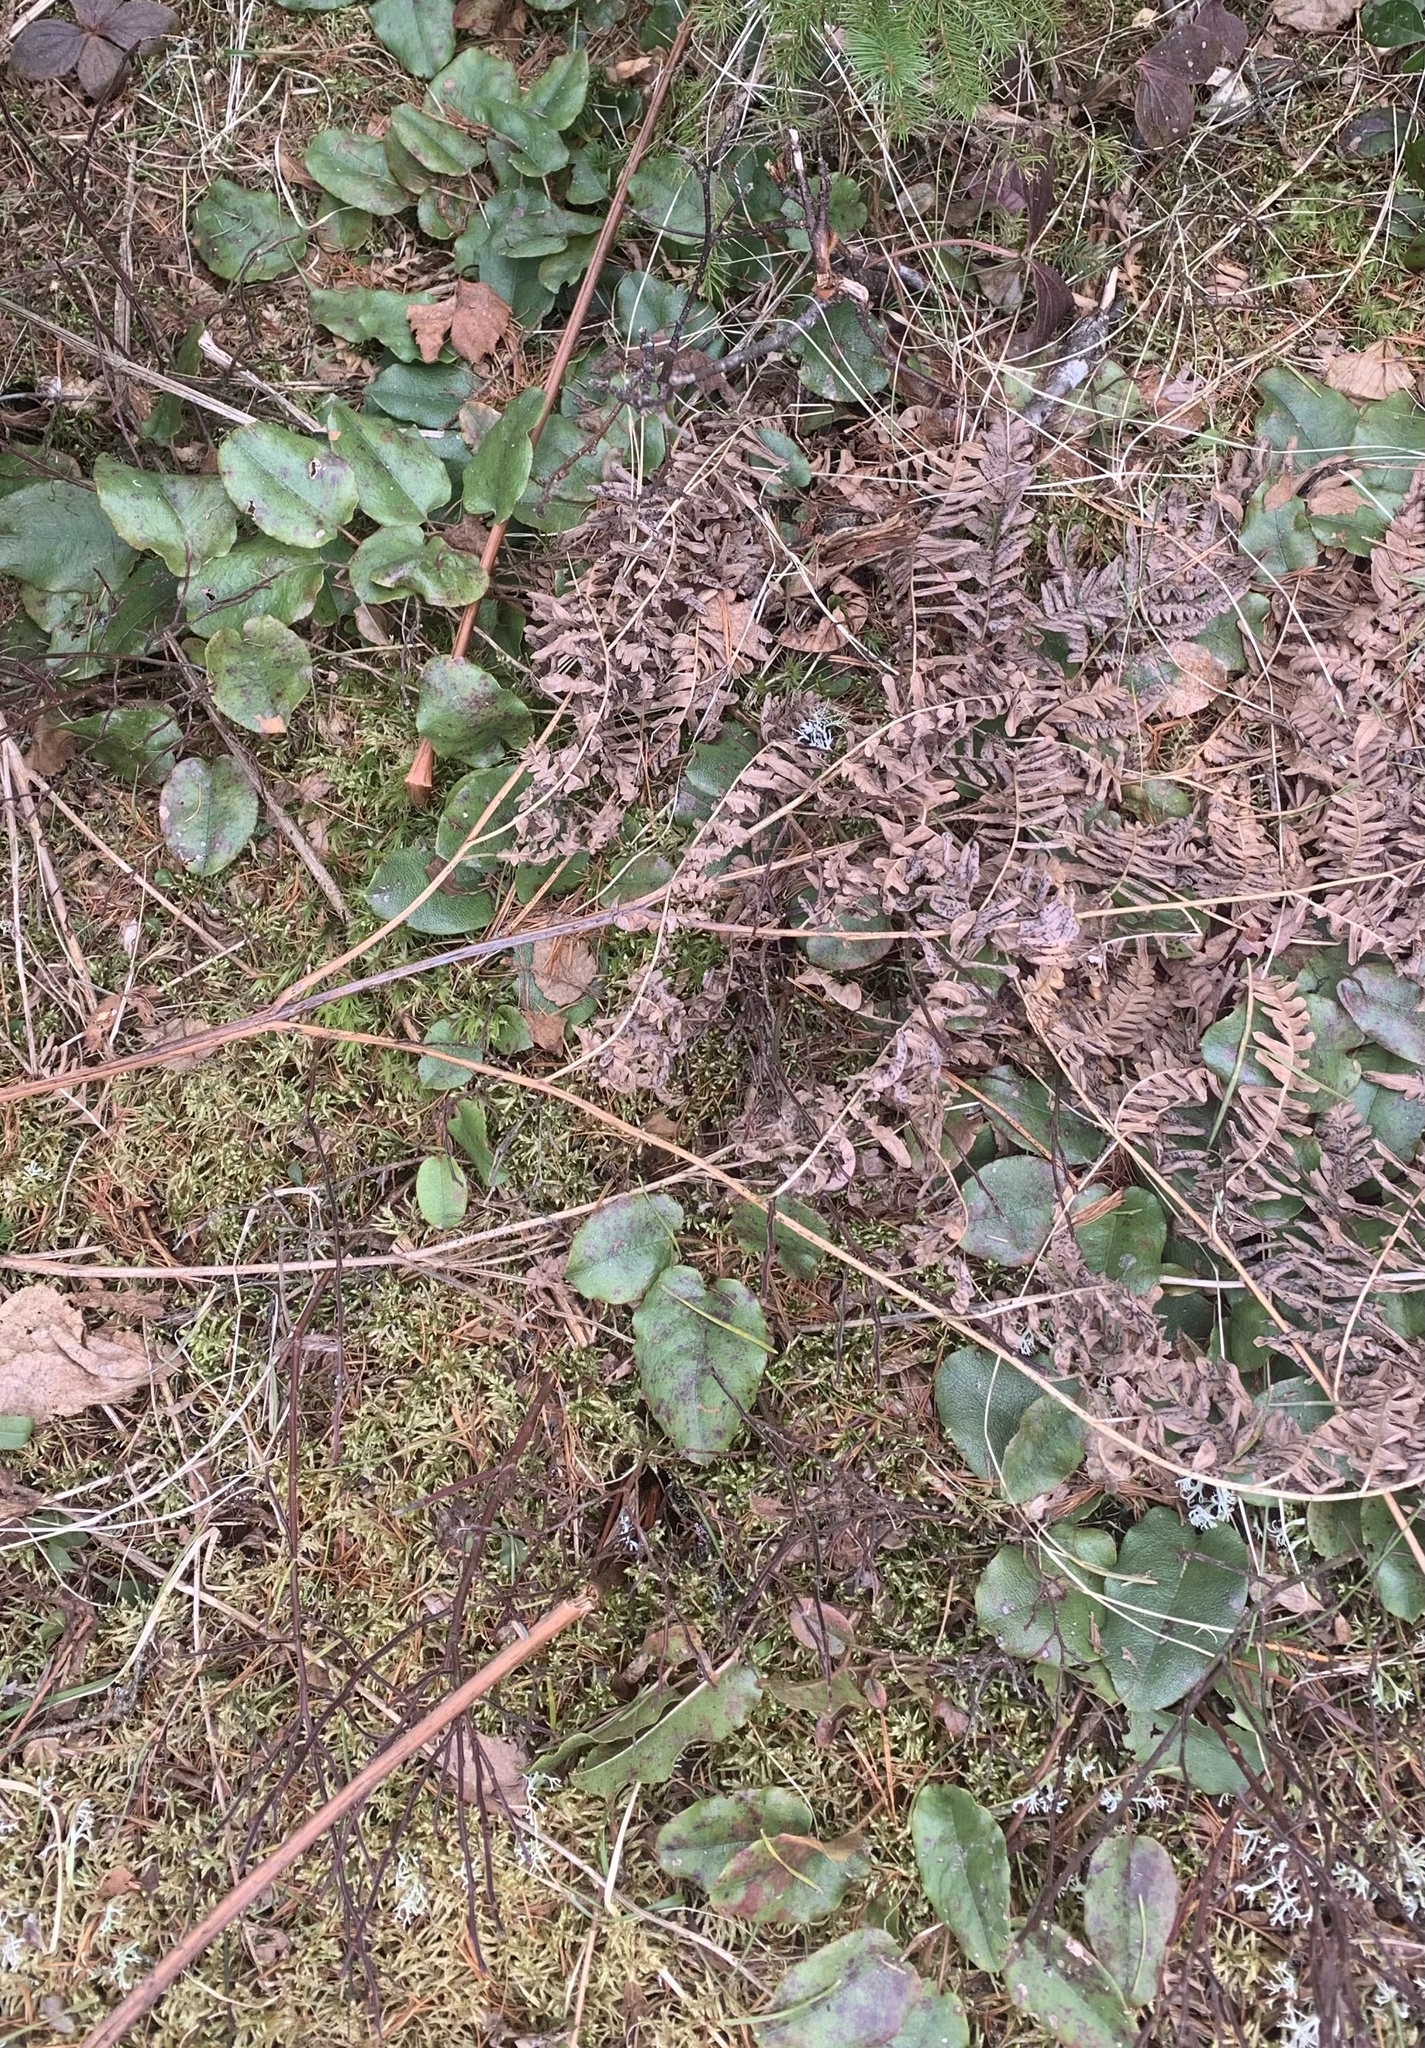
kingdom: Plantae
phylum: Tracheophyta
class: Magnoliopsida
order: Ericales
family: Ericaceae
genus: Epigaea
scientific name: Epigaea repens
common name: Gravelroot
